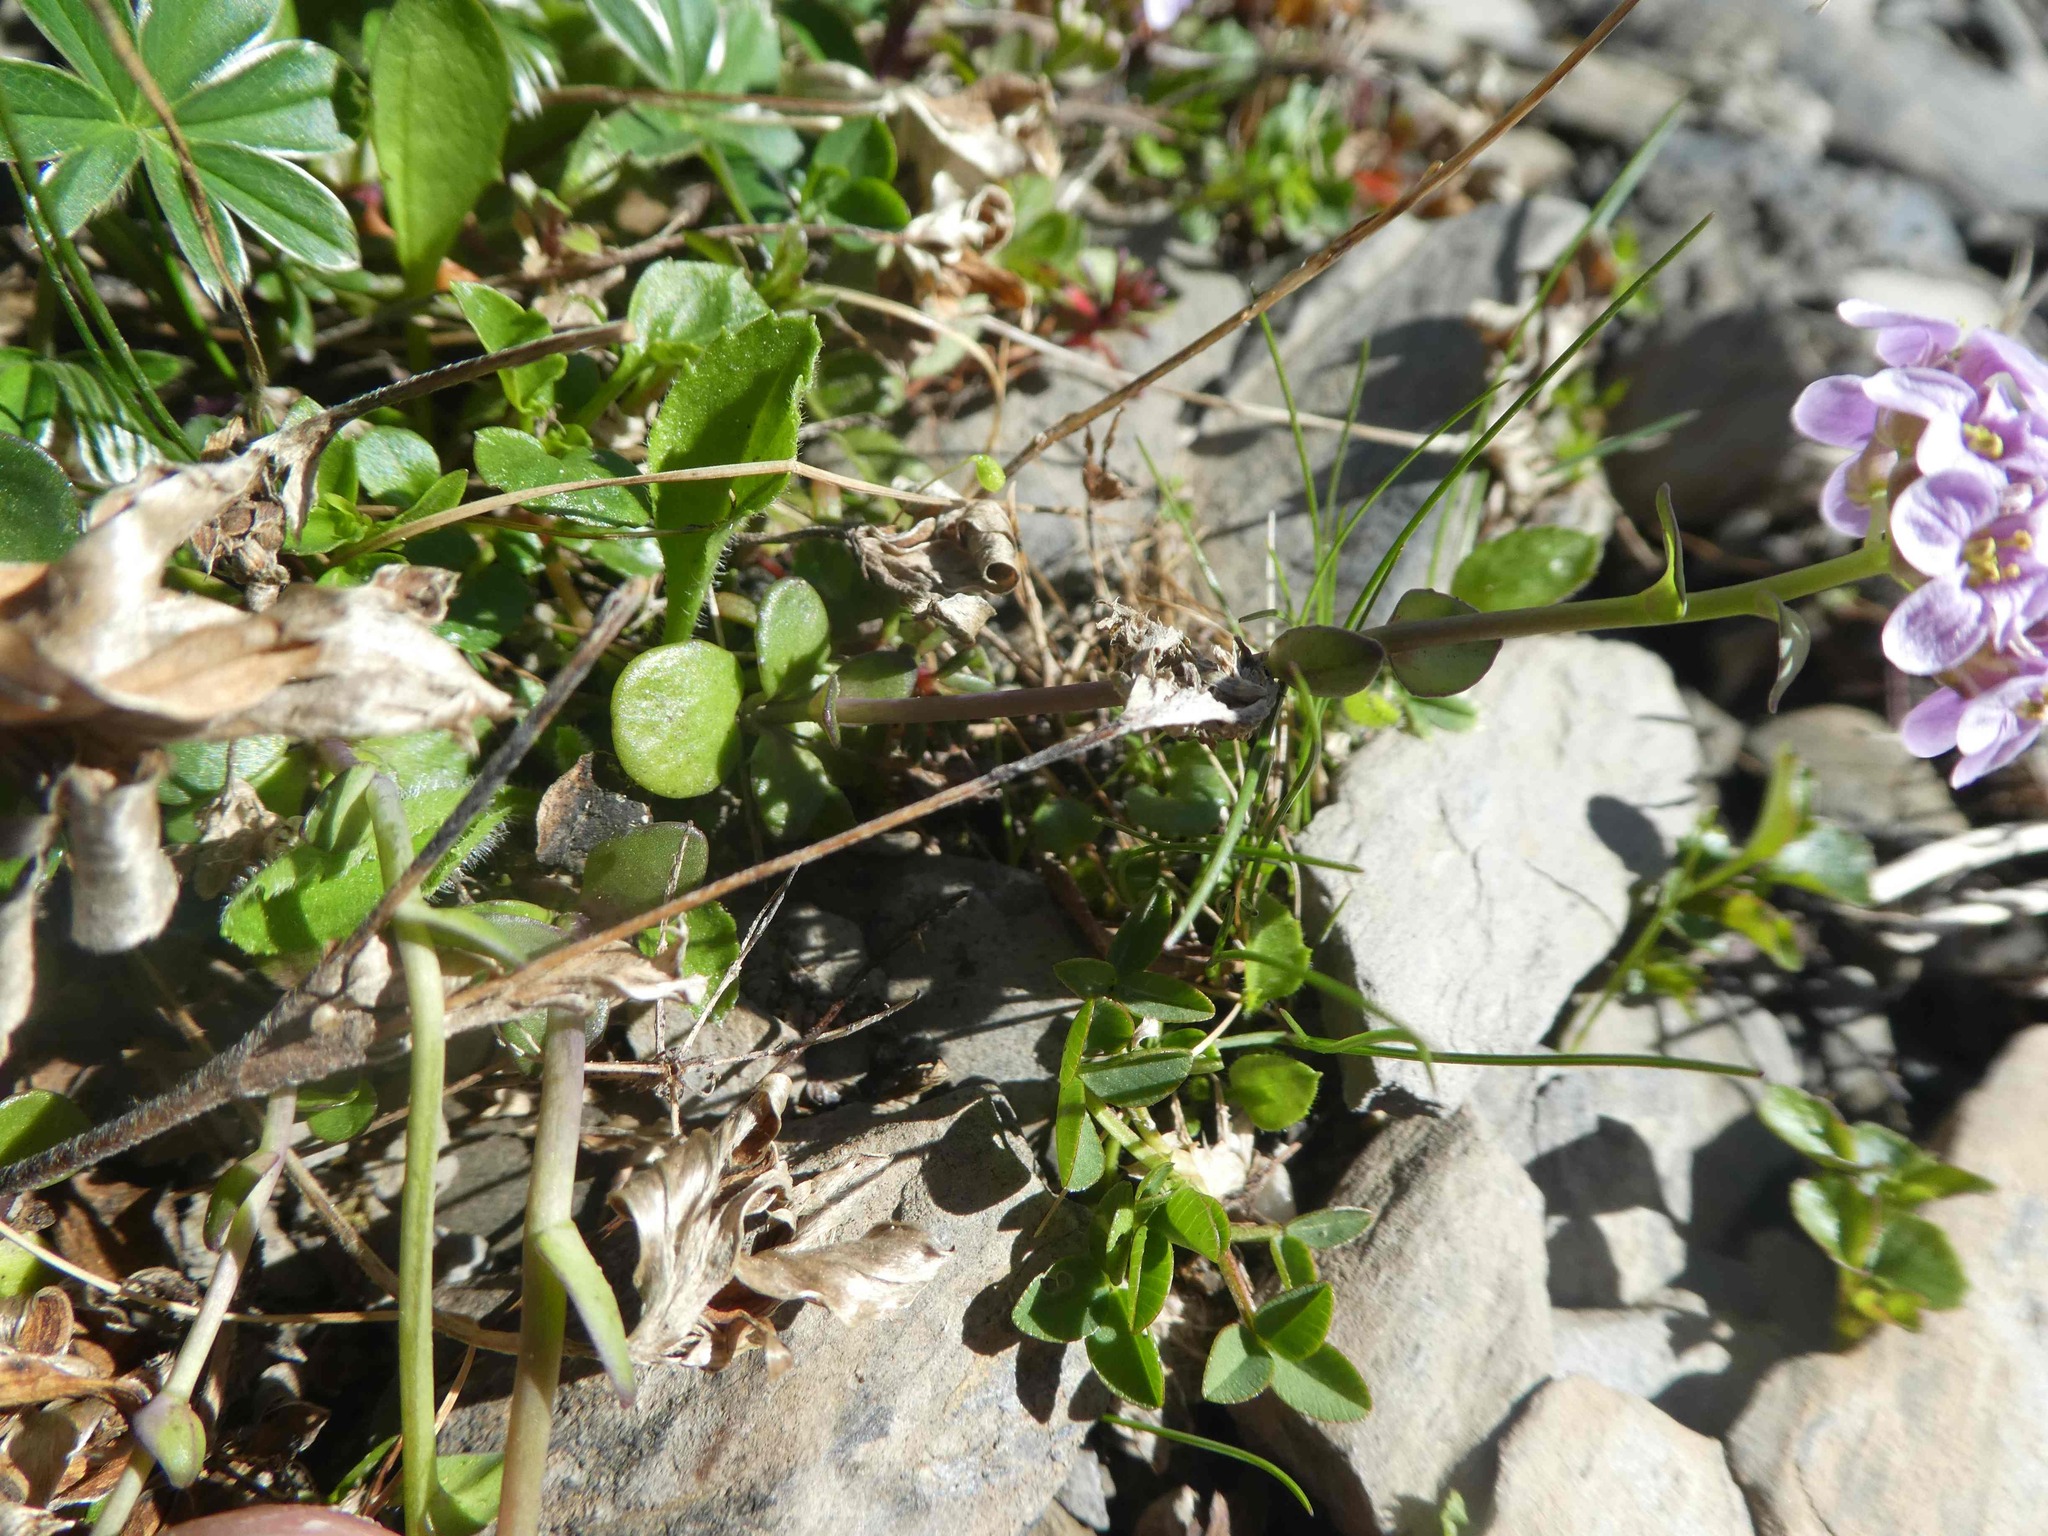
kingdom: Plantae
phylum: Tracheophyta
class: Magnoliopsida
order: Brassicales
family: Brassicaceae
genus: Noccaea
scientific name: Noccaea rotundifolia
